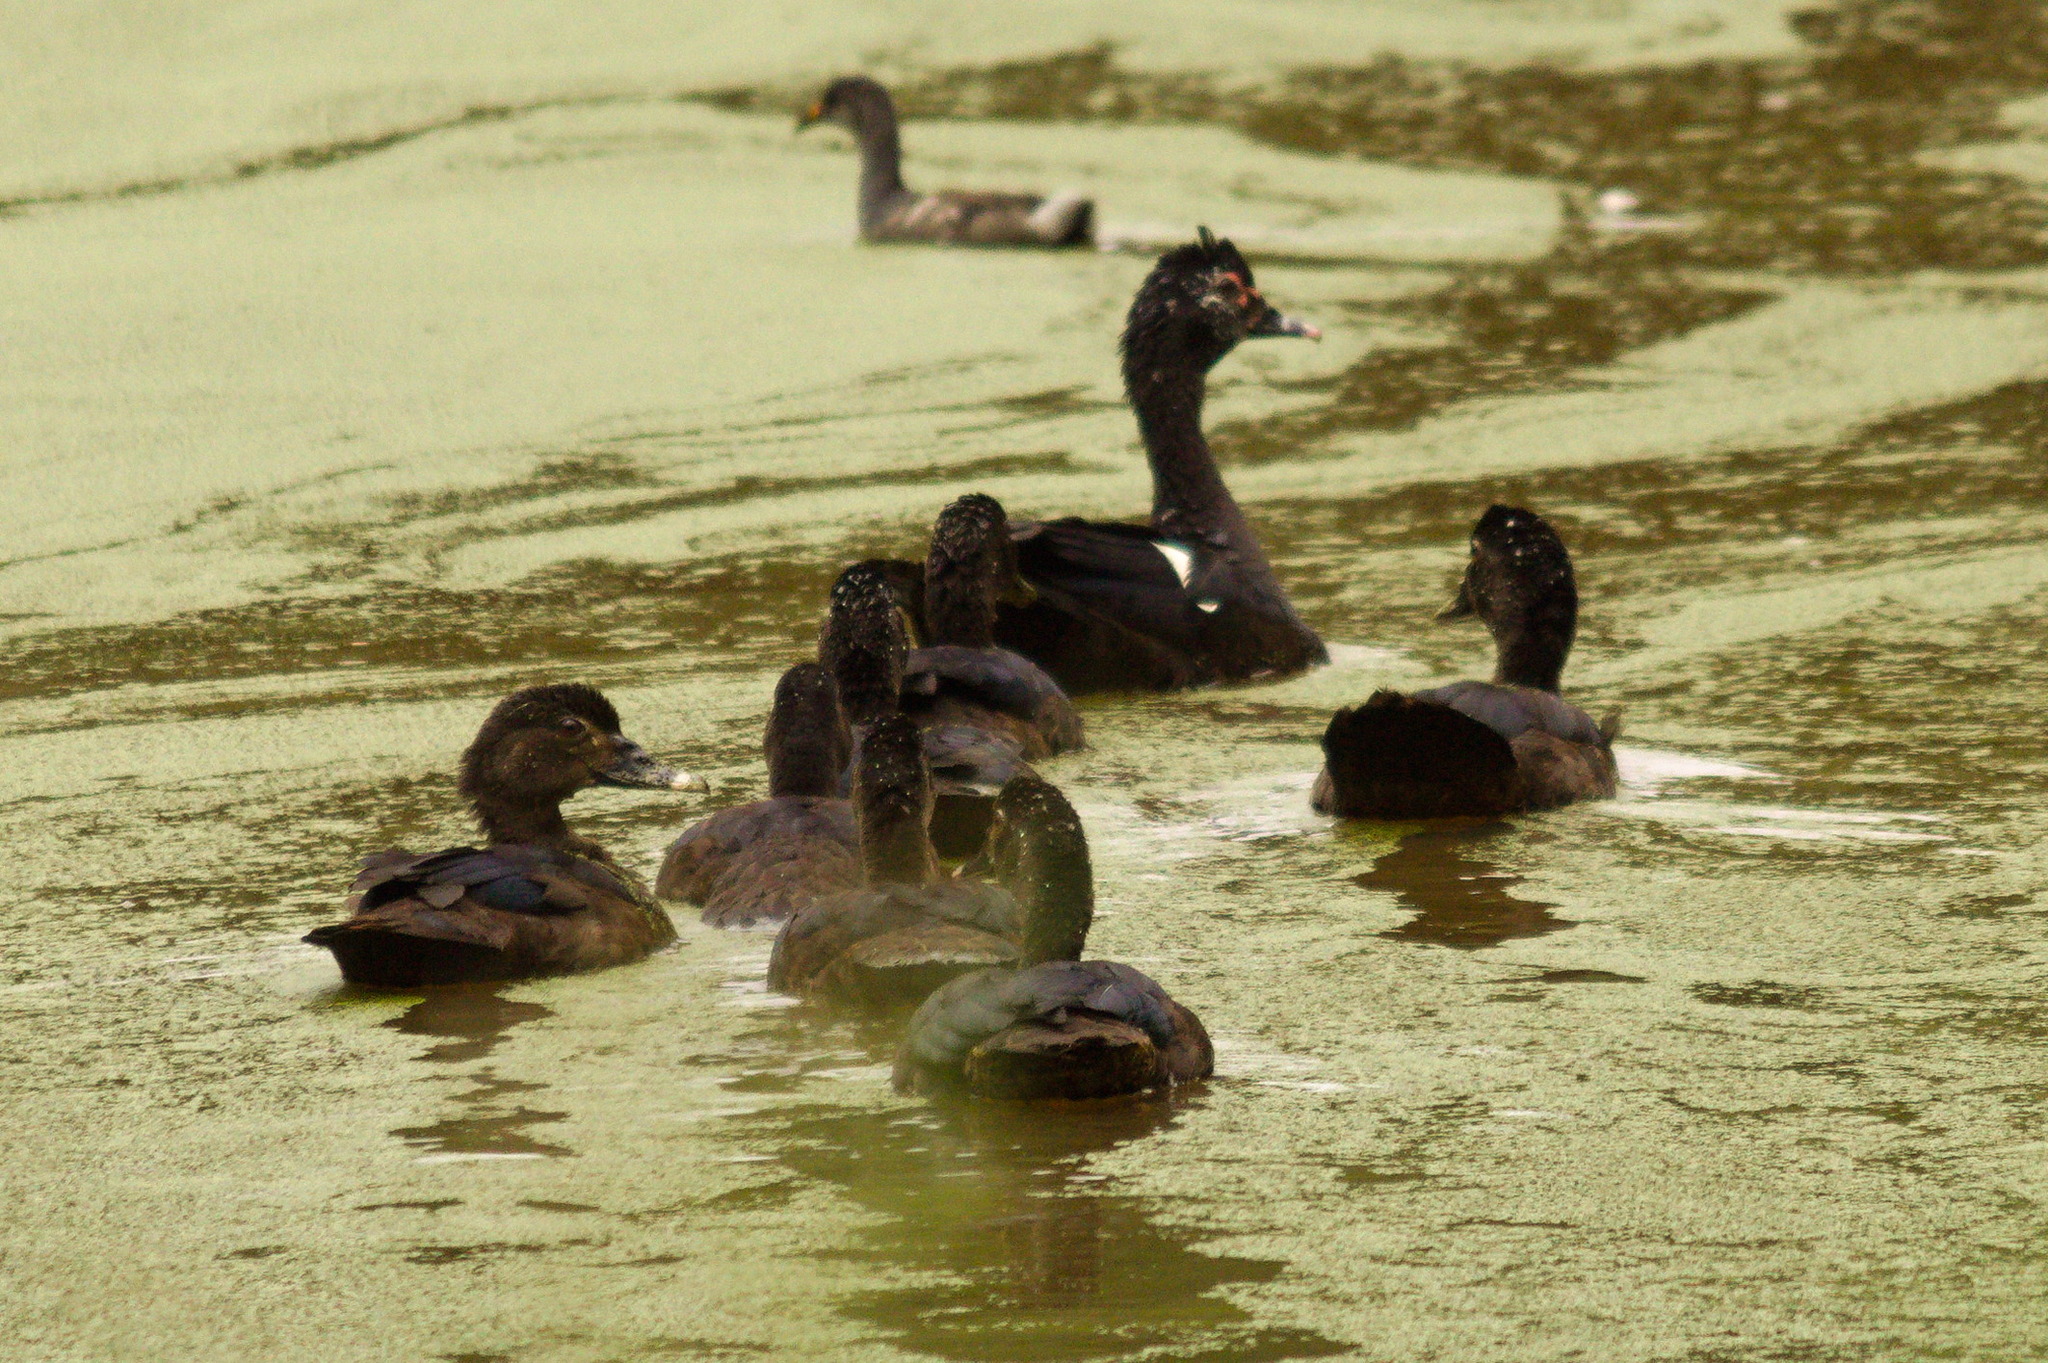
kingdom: Animalia
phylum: Chordata
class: Aves
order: Anseriformes
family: Anatidae
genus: Cairina
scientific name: Cairina moschata
